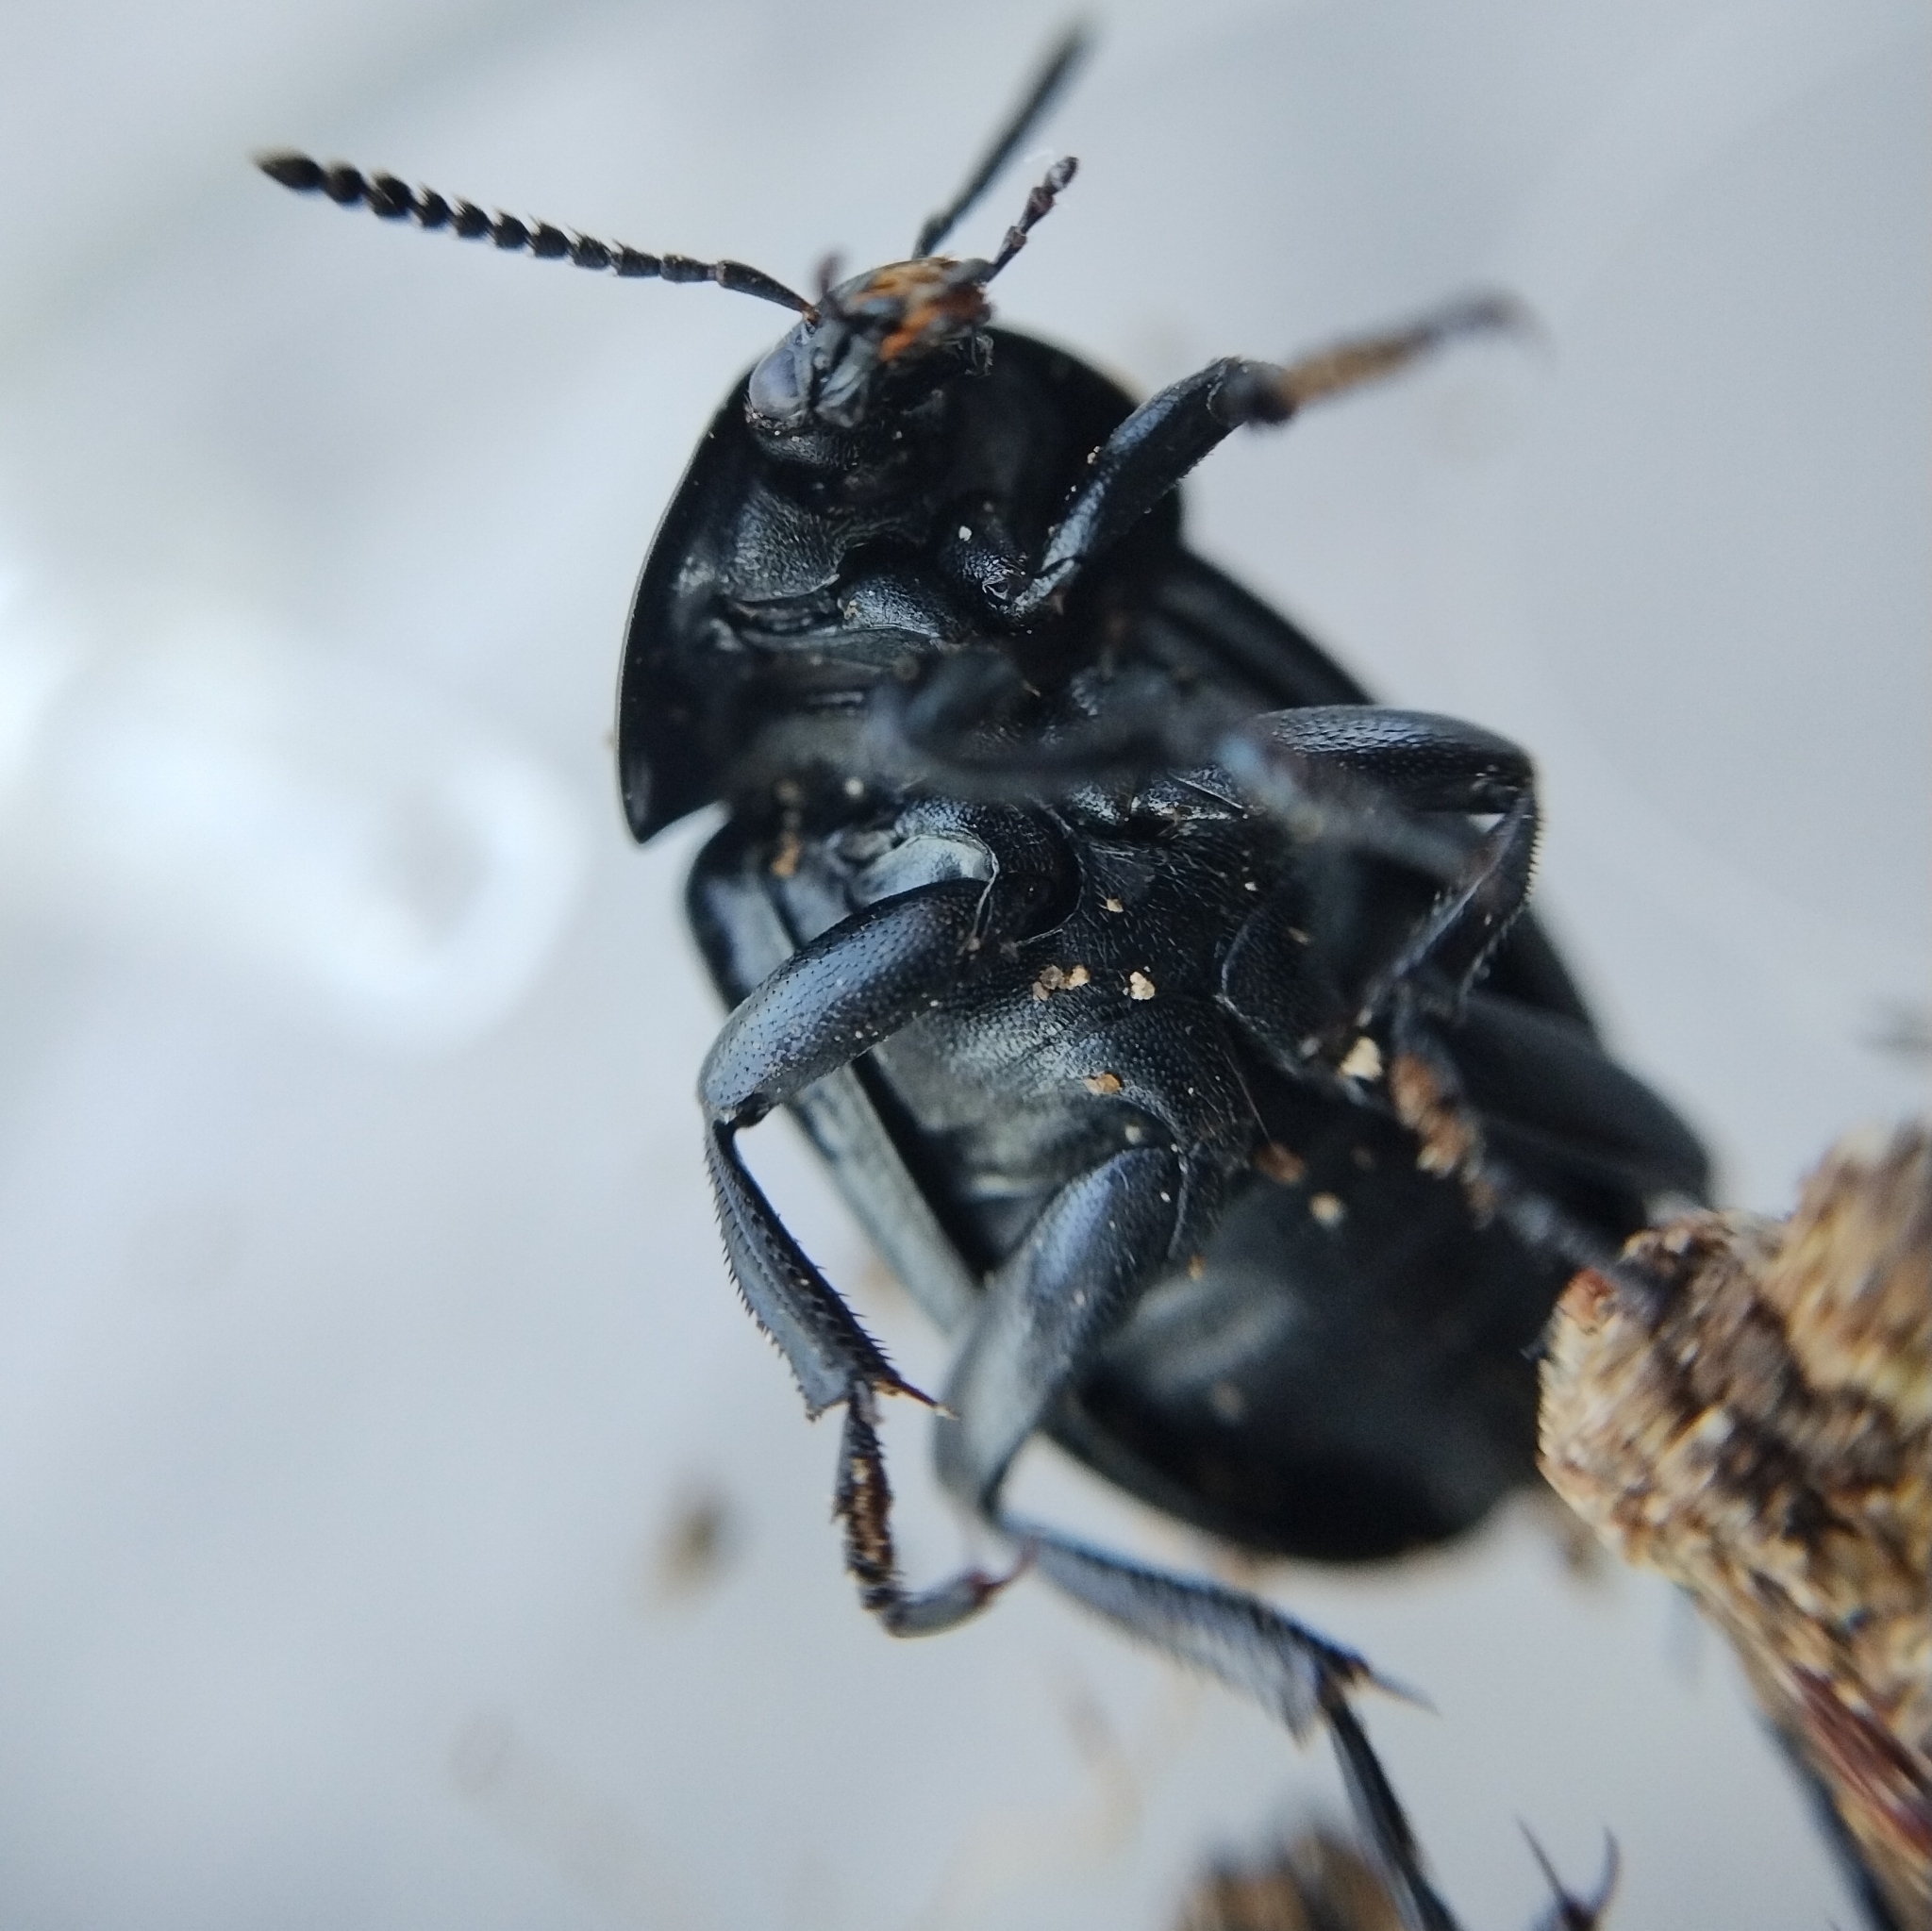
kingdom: Animalia
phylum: Arthropoda
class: Insecta
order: Coleoptera
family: Staphylinidae
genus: Silpha
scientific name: Silpha laevigata
